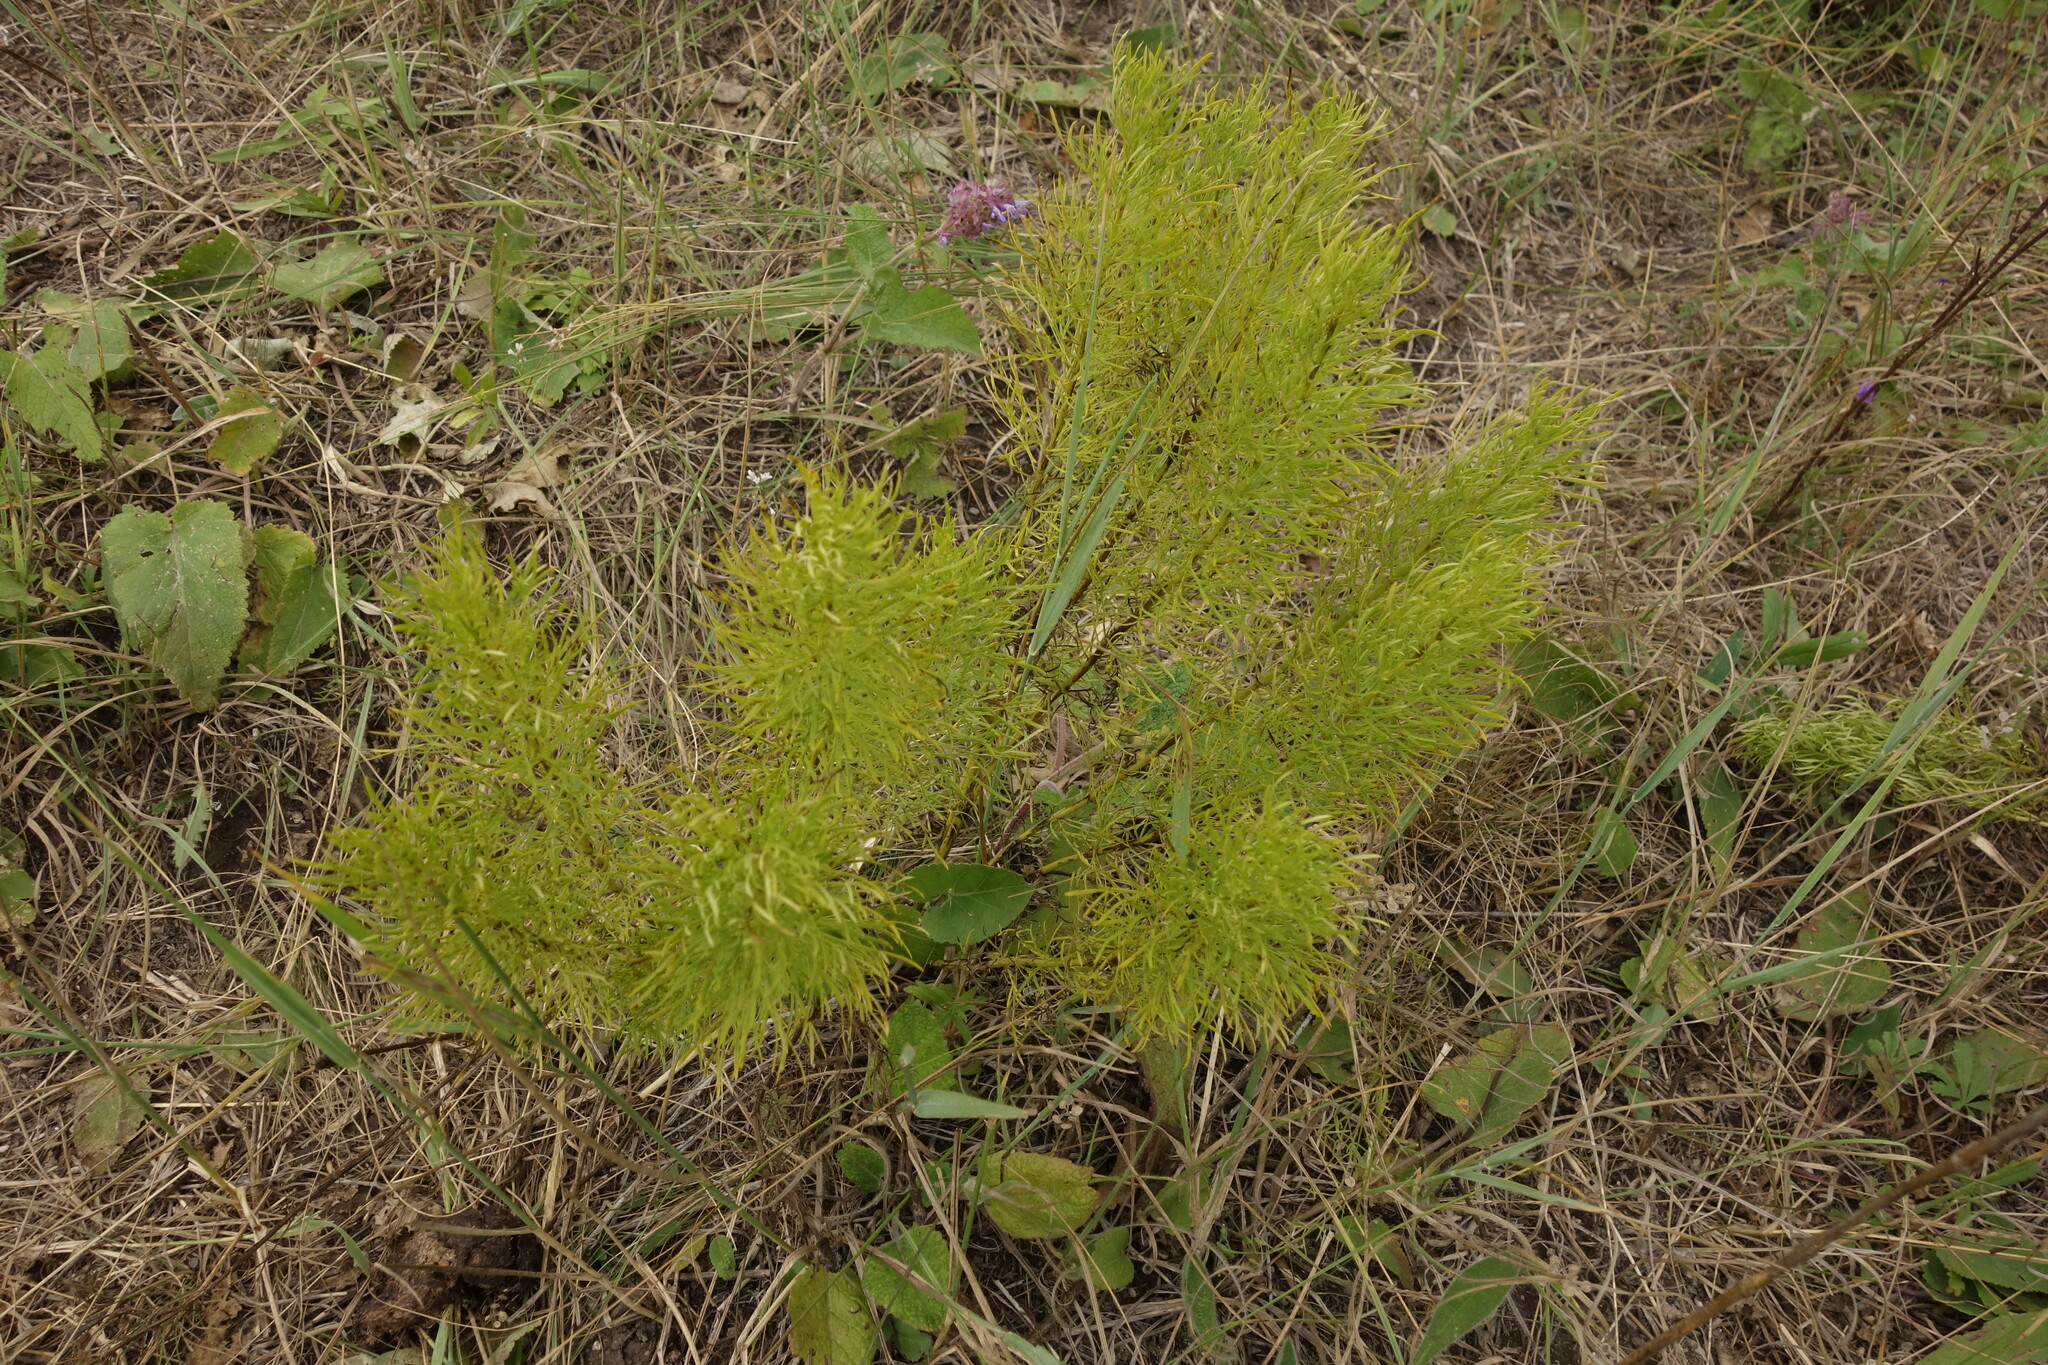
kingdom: Plantae
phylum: Tracheophyta
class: Magnoliopsida
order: Ranunculales
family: Ranunculaceae
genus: Adonis
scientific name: Adonis vernalis
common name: Yellow pheasants-eye
